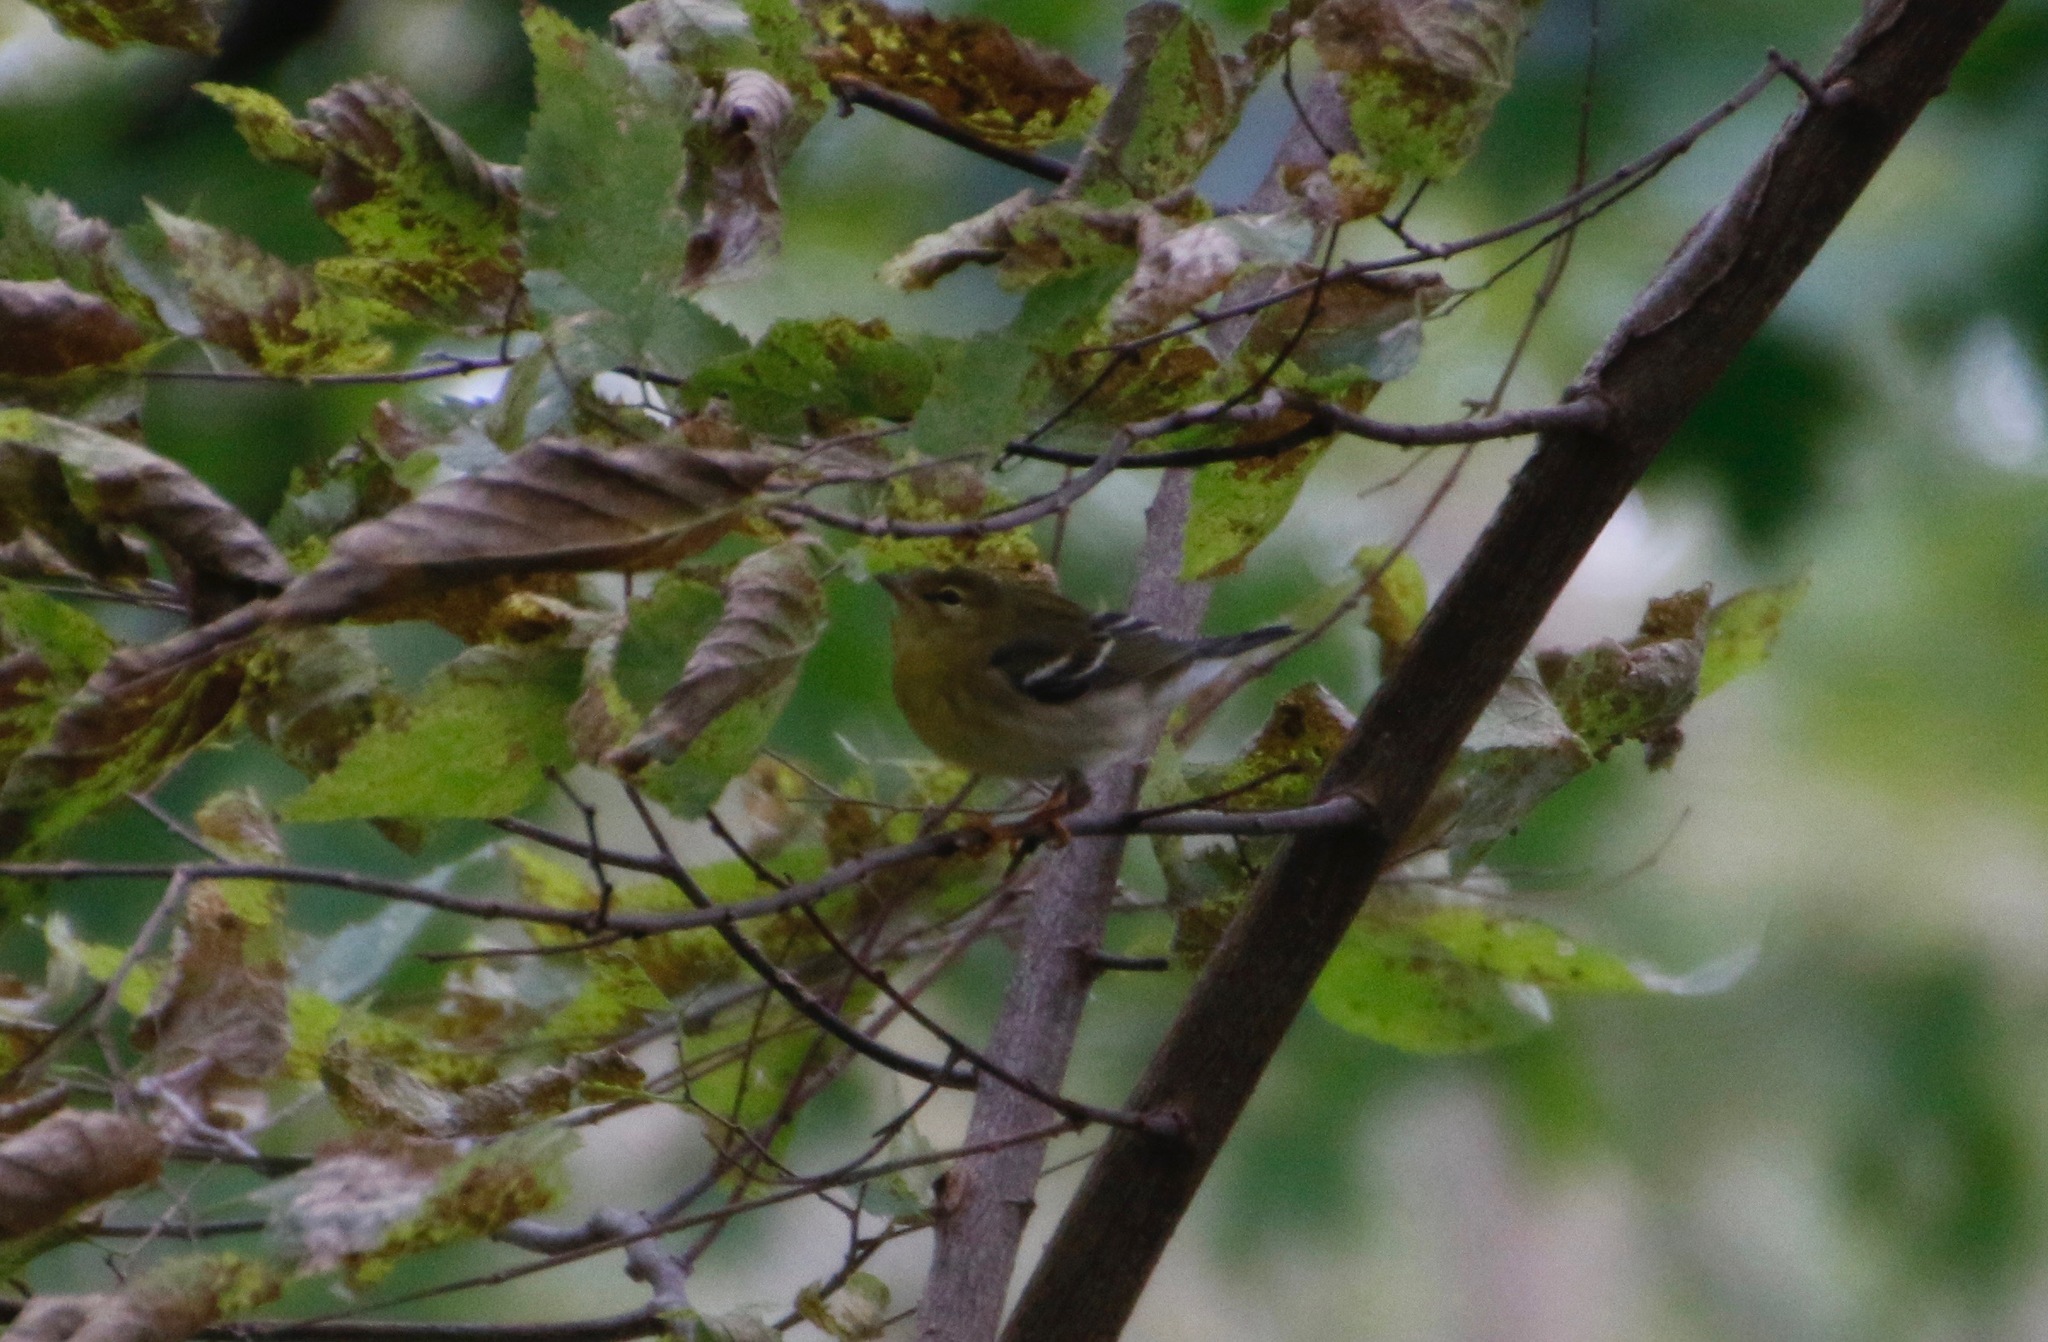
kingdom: Animalia
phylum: Chordata
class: Aves
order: Passeriformes
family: Parulidae
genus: Setophaga
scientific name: Setophaga striata
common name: Blackpoll warbler
